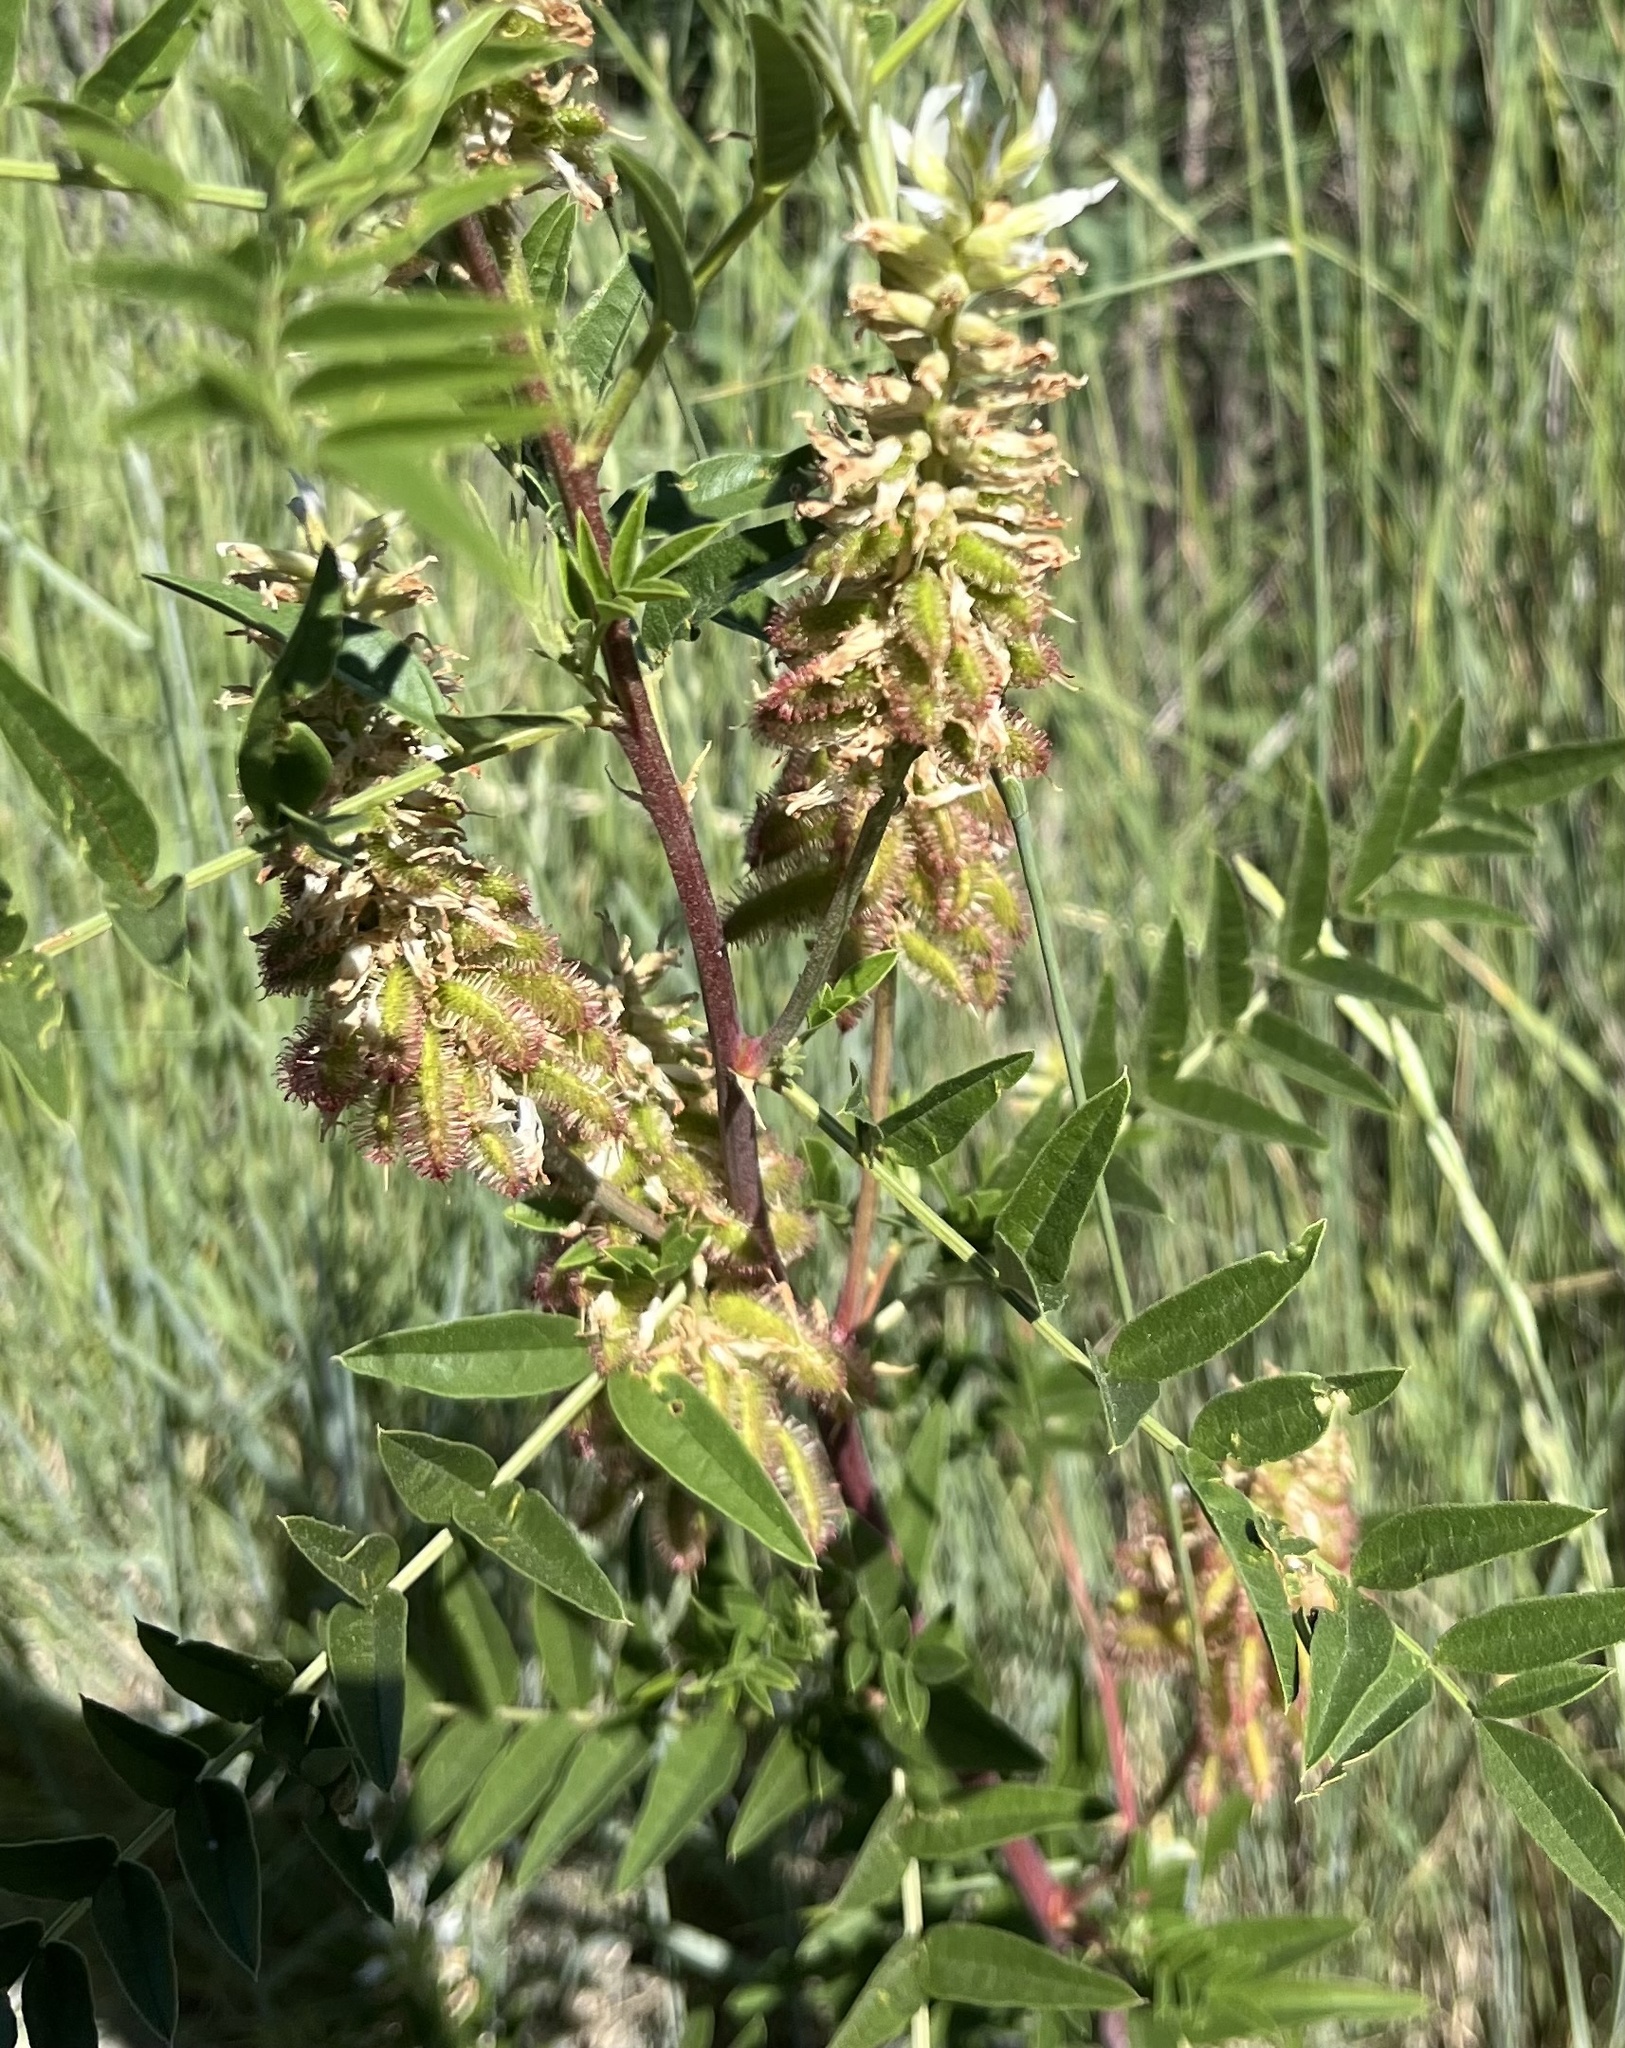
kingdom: Plantae
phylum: Tracheophyta
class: Magnoliopsida
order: Fabales
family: Fabaceae
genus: Glycyrrhiza
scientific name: Glycyrrhiza lepidota
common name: American liquorice
